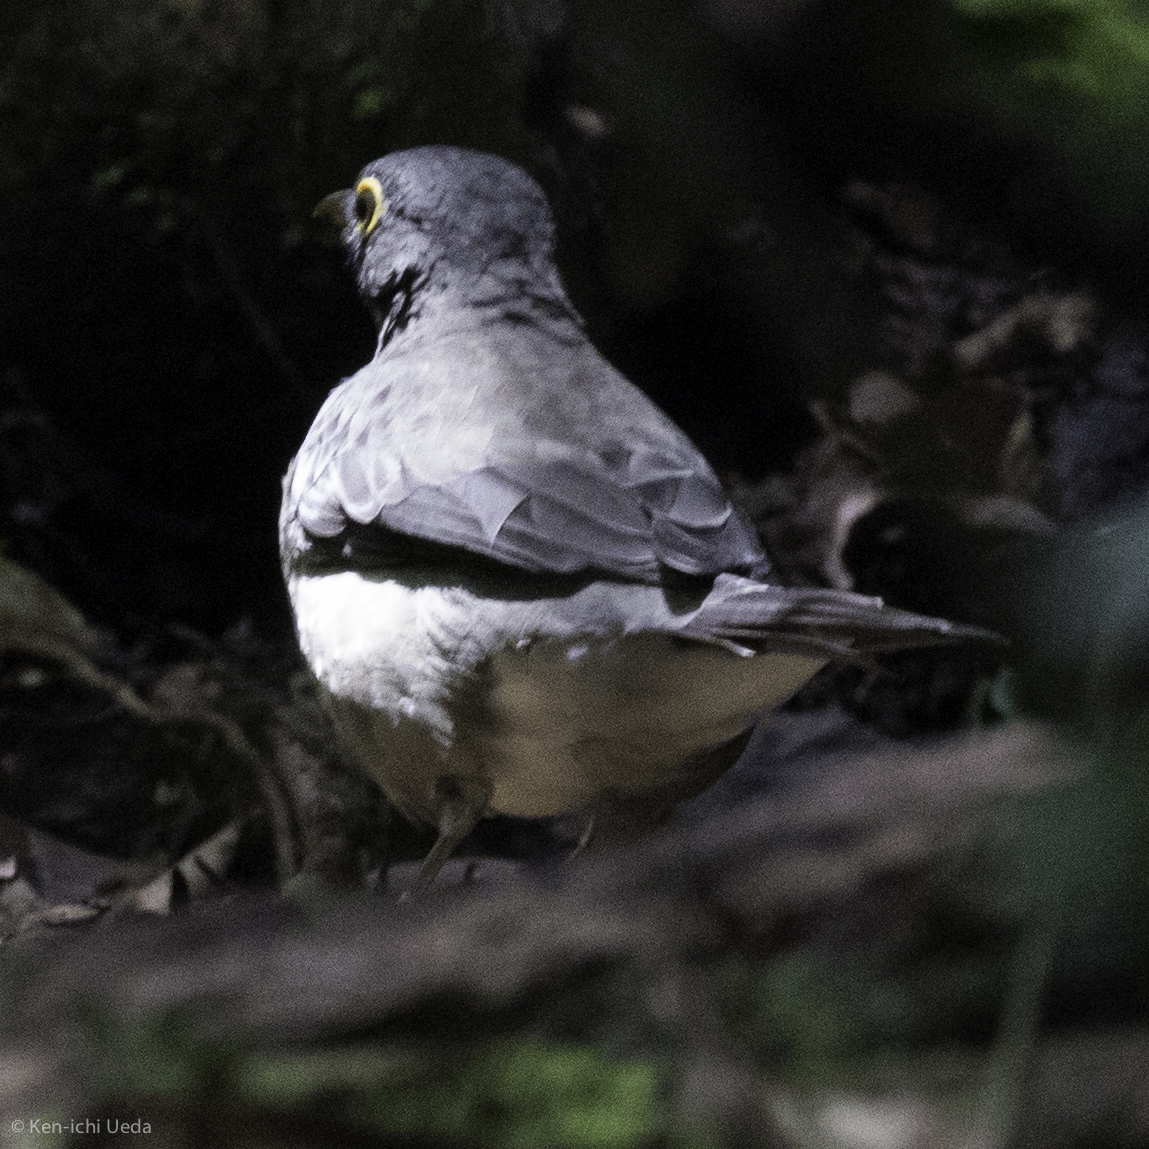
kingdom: Animalia
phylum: Chordata
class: Aves
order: Passeriformes
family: Turdidae
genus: Turdus
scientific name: Turdus assimilis
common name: White-throated thrush
